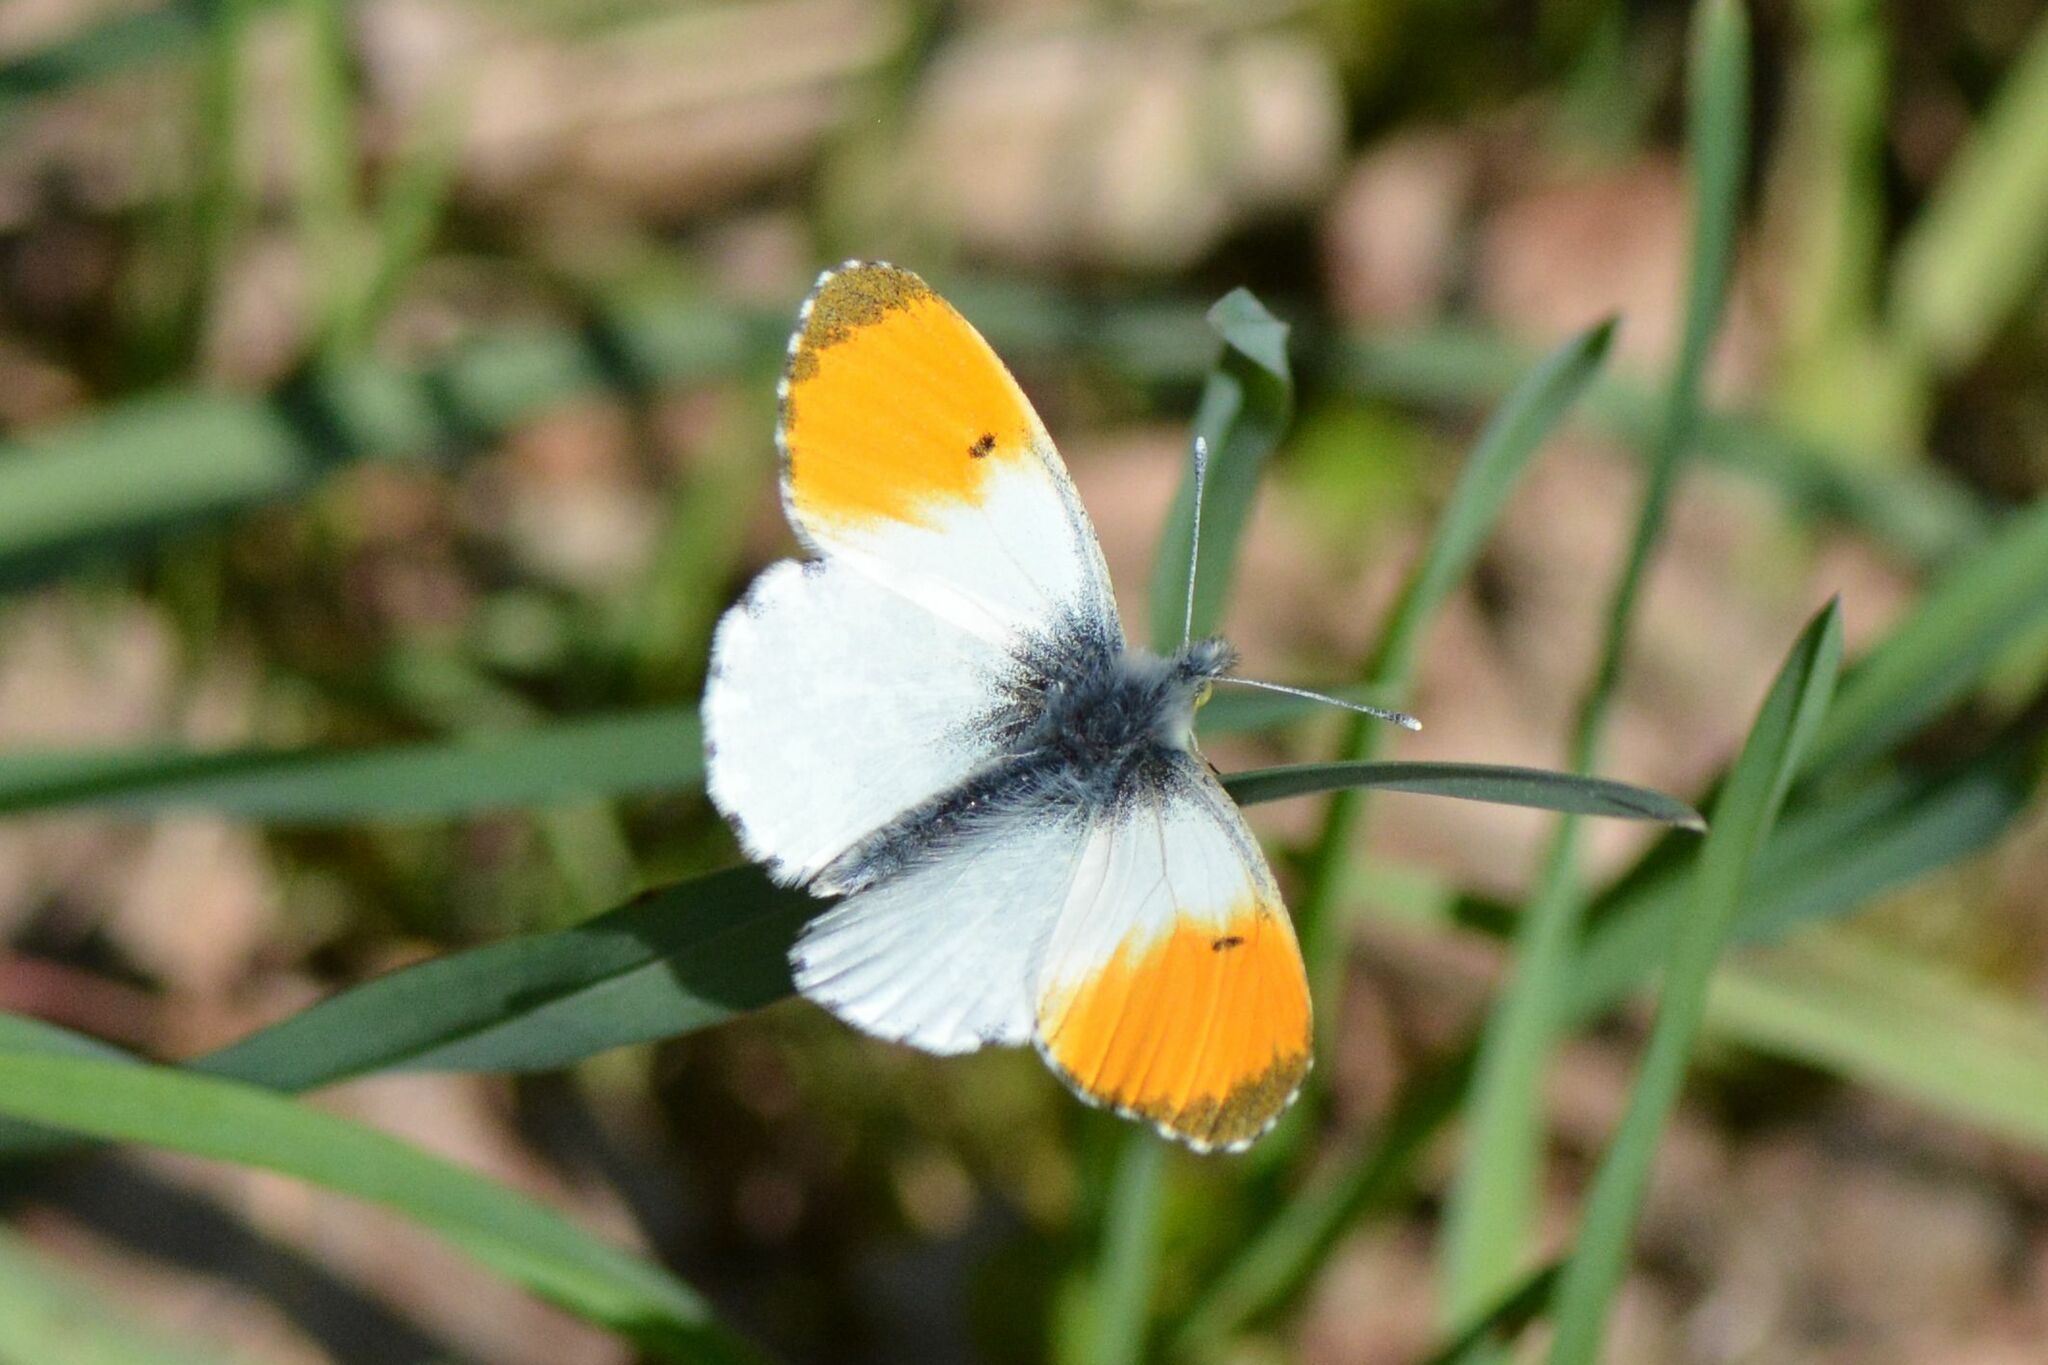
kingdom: Animalia
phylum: Arthropoda
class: Insecta
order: Lepidoptera
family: Pieridae
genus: Anthocharis
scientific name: Anthocharis cardamines
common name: Orange-tip
